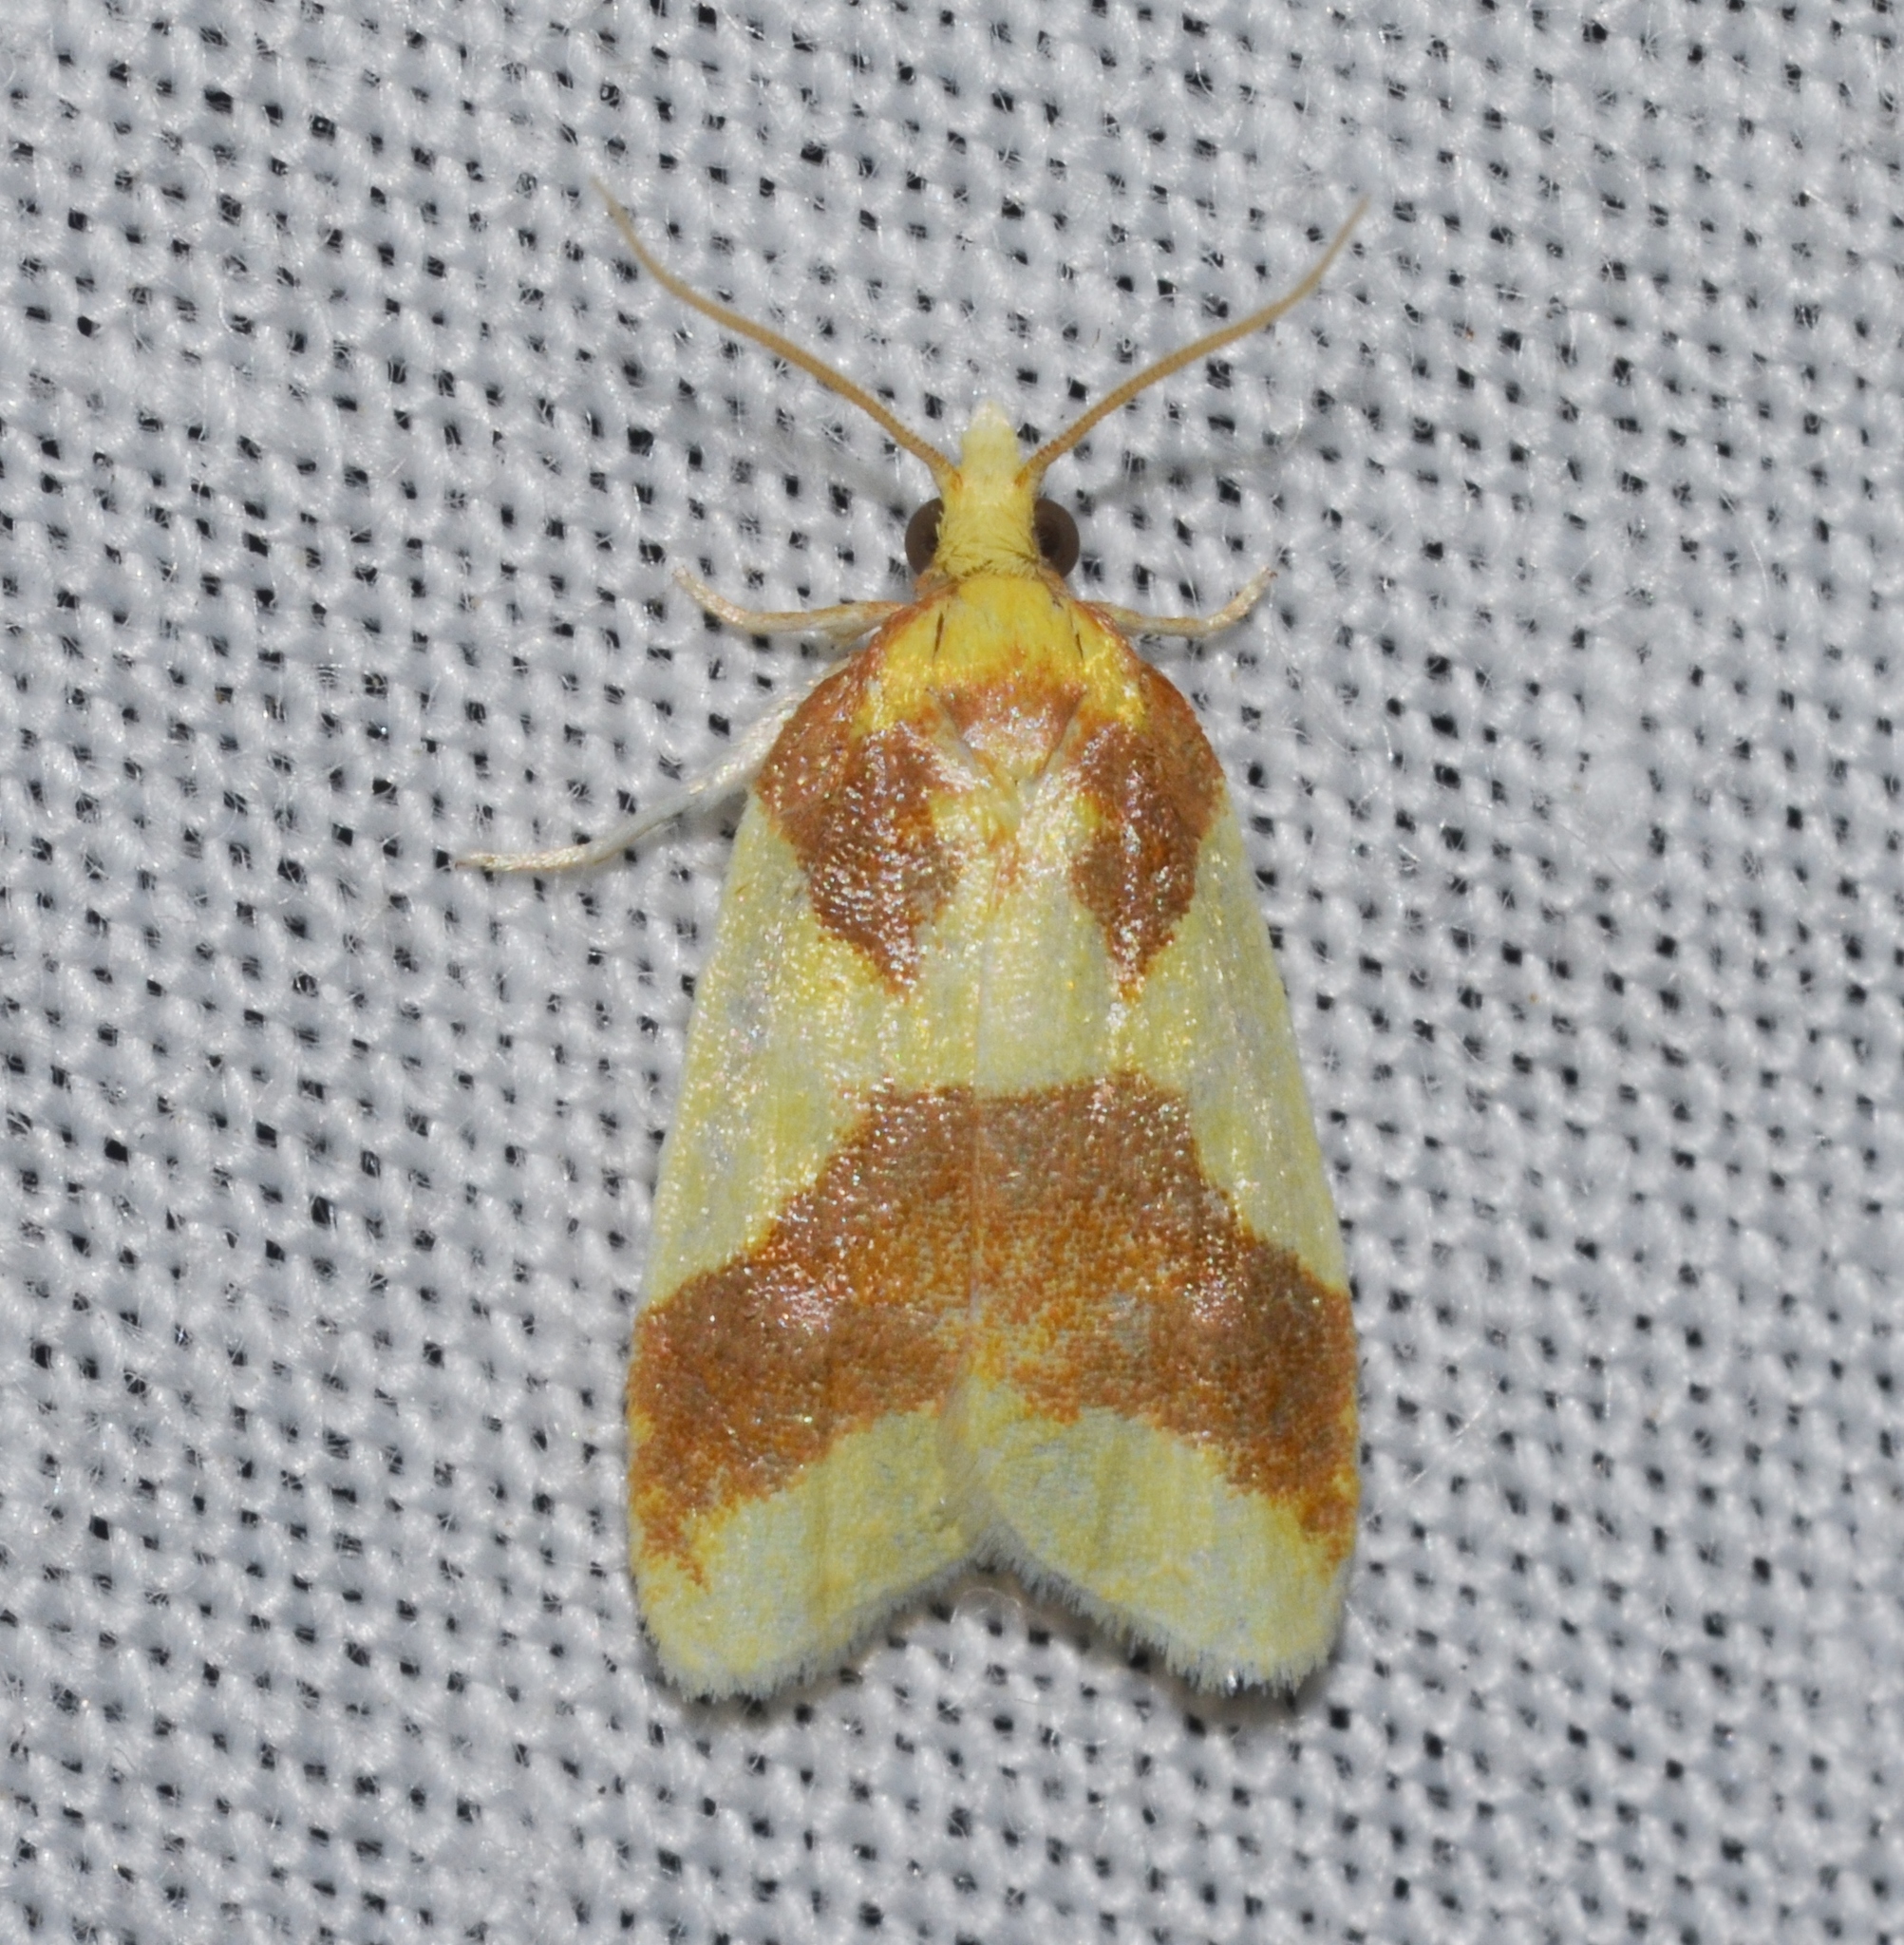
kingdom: Animalia
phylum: Arthropoda
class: Insecta
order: Lepidoptera
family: Tortricidae
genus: Sparganothis
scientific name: Sparganothis pulcherrimana
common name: Beautiful sparganothis
